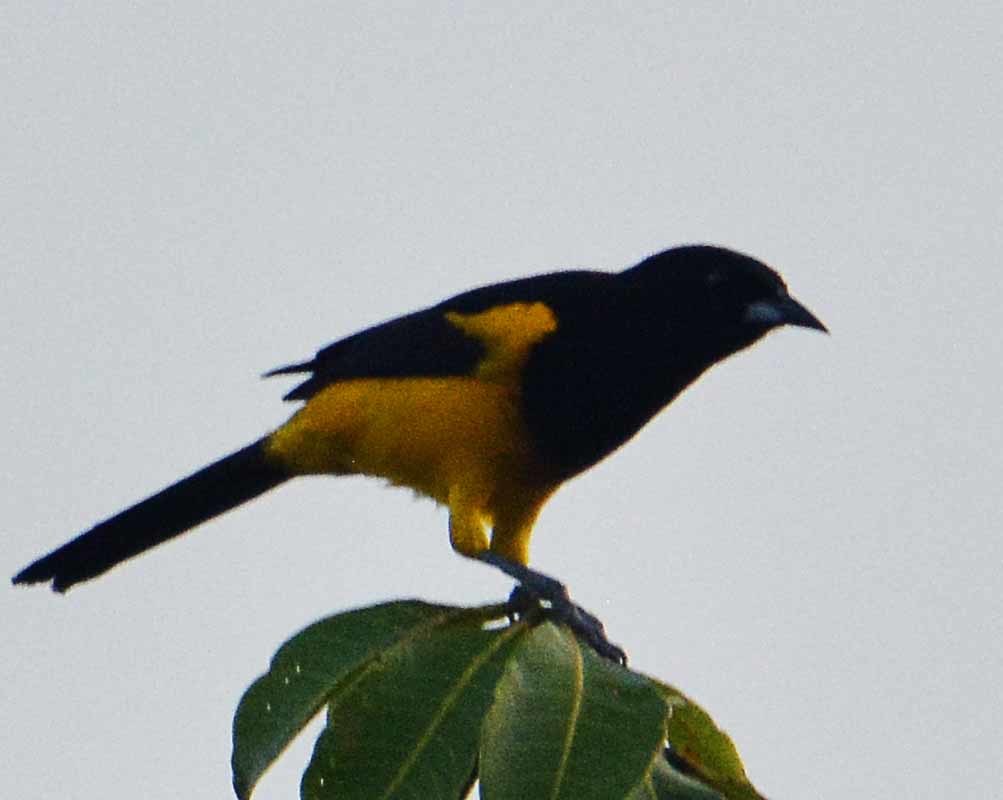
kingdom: Animalia
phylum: Chordata
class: Aves
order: Passeriformes
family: Icteridae
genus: Icterus
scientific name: Icterus prosthemelas
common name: Black-cowled oriole
